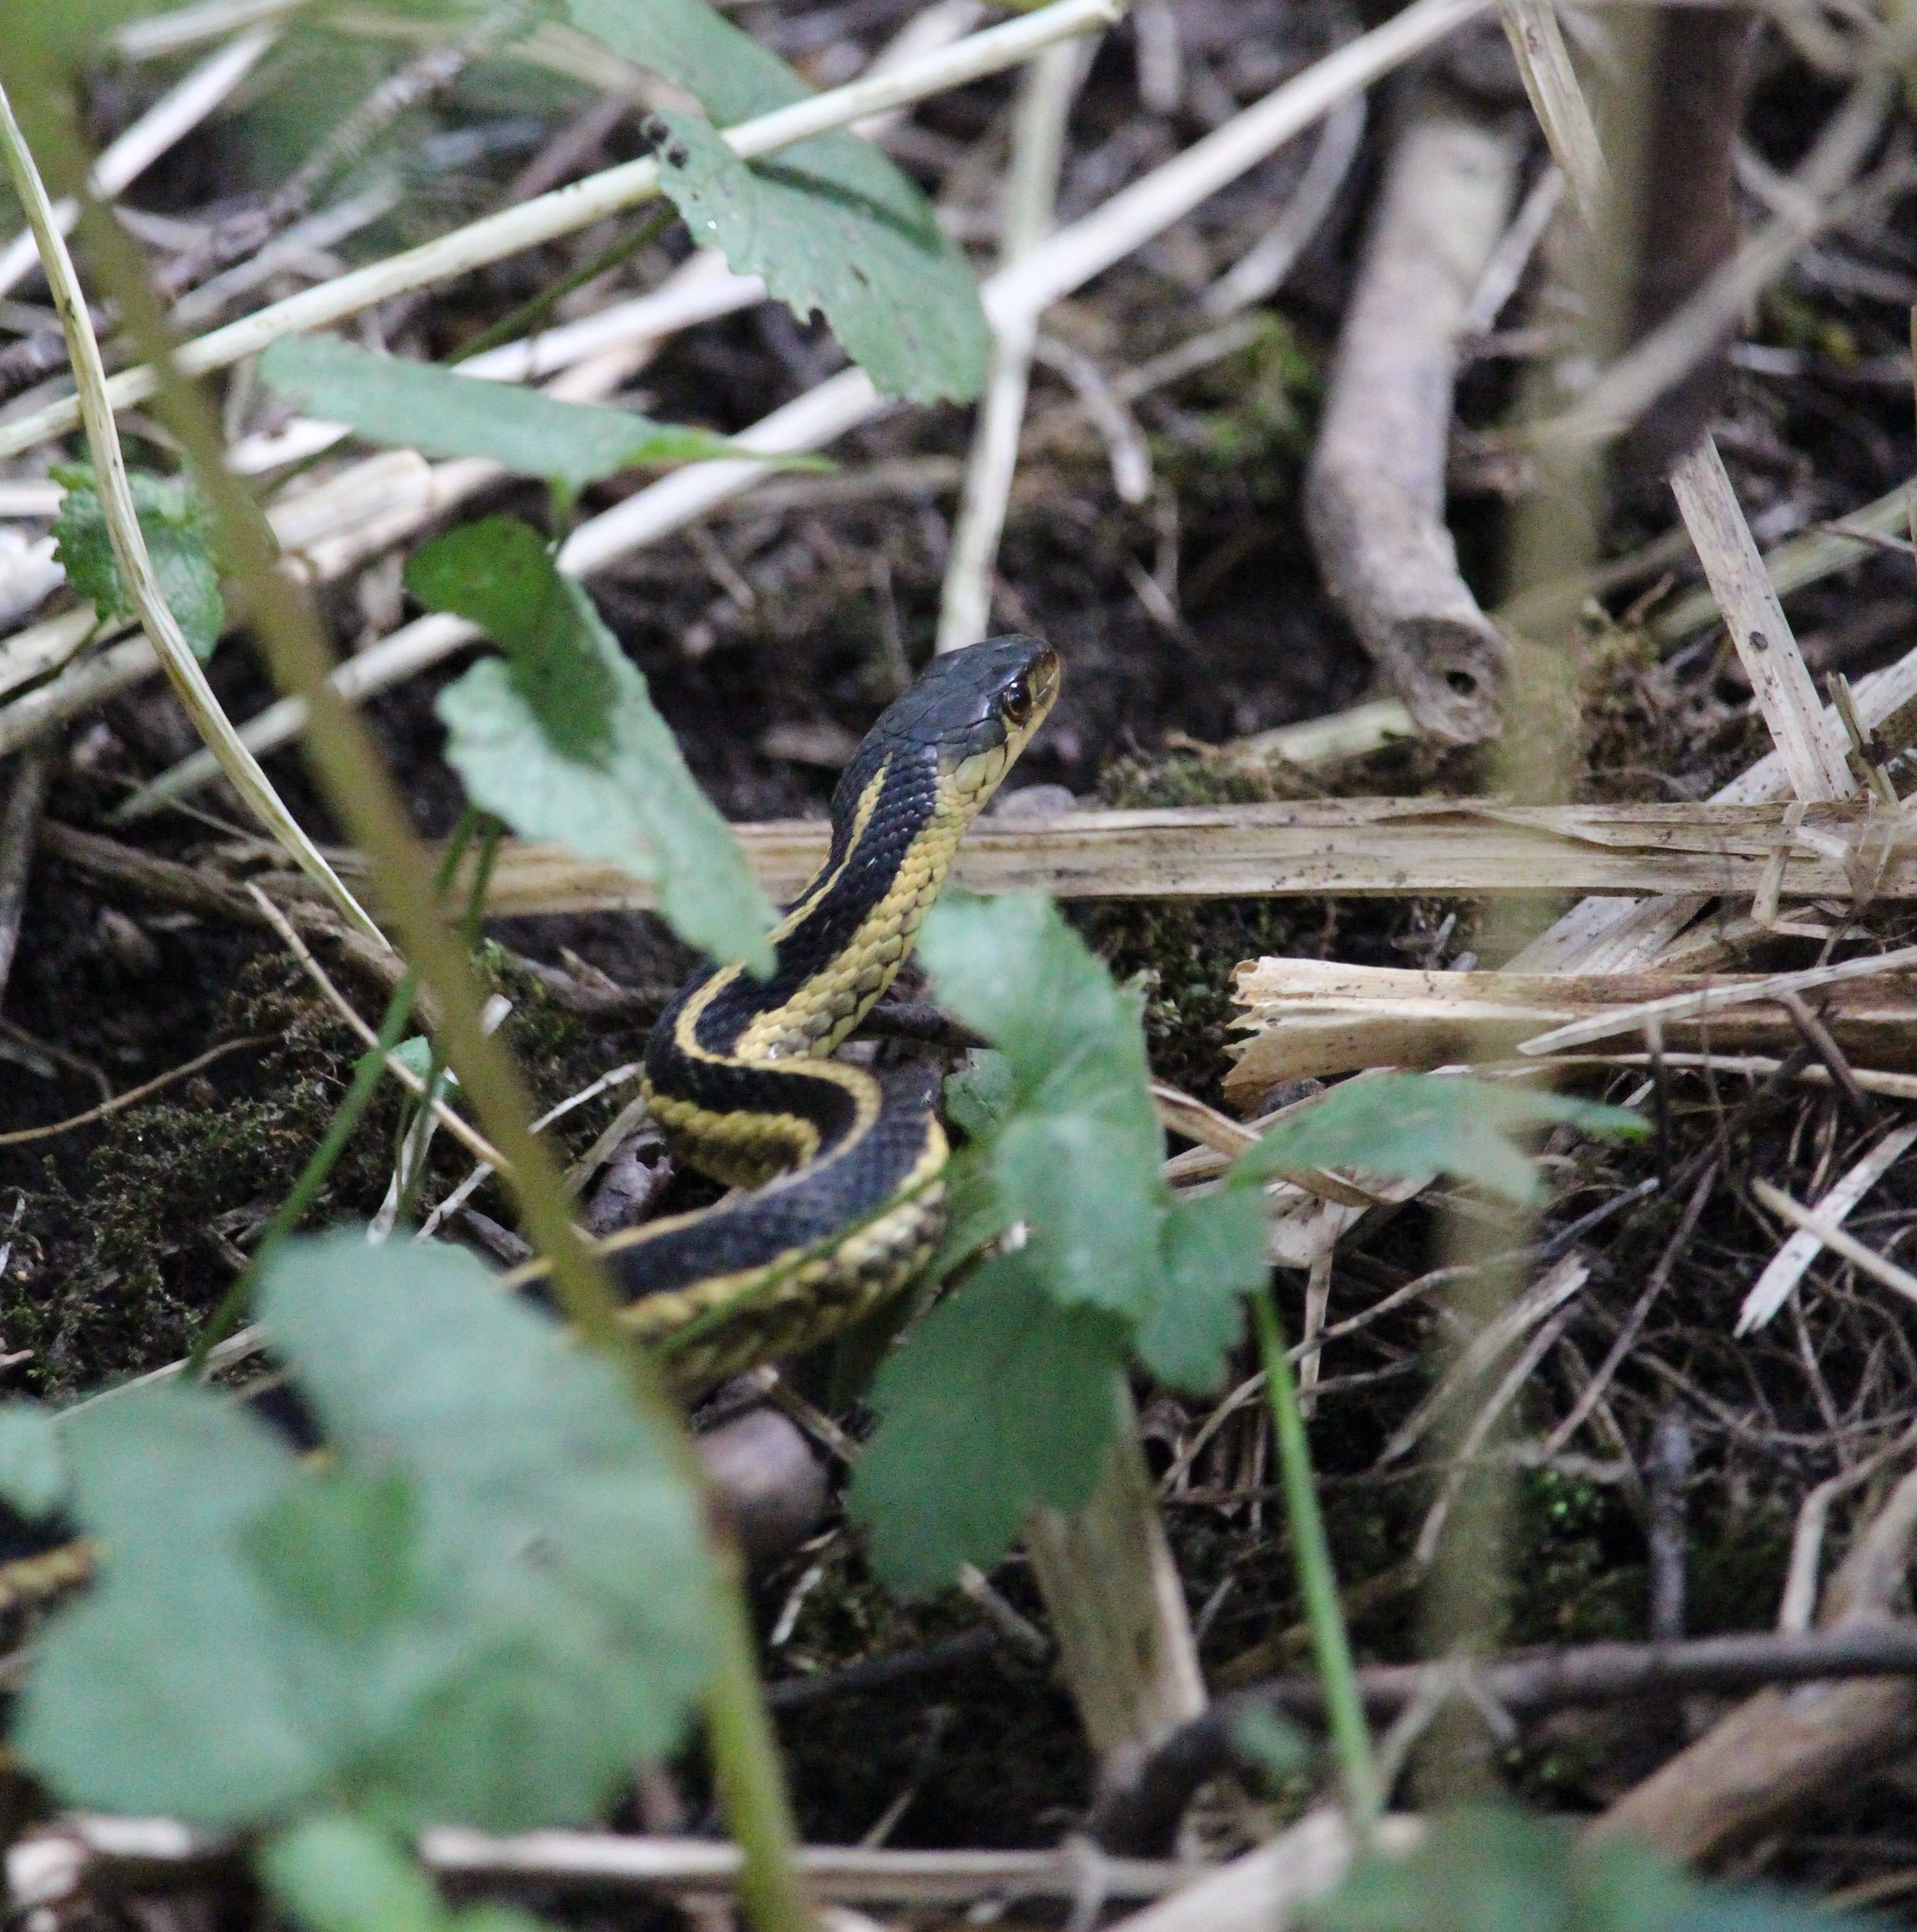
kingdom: Animalia
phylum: Chordata
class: Squamata
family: Colubridae
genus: Thamnophis
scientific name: Thamnophis sirtalis
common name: Common garter snake
